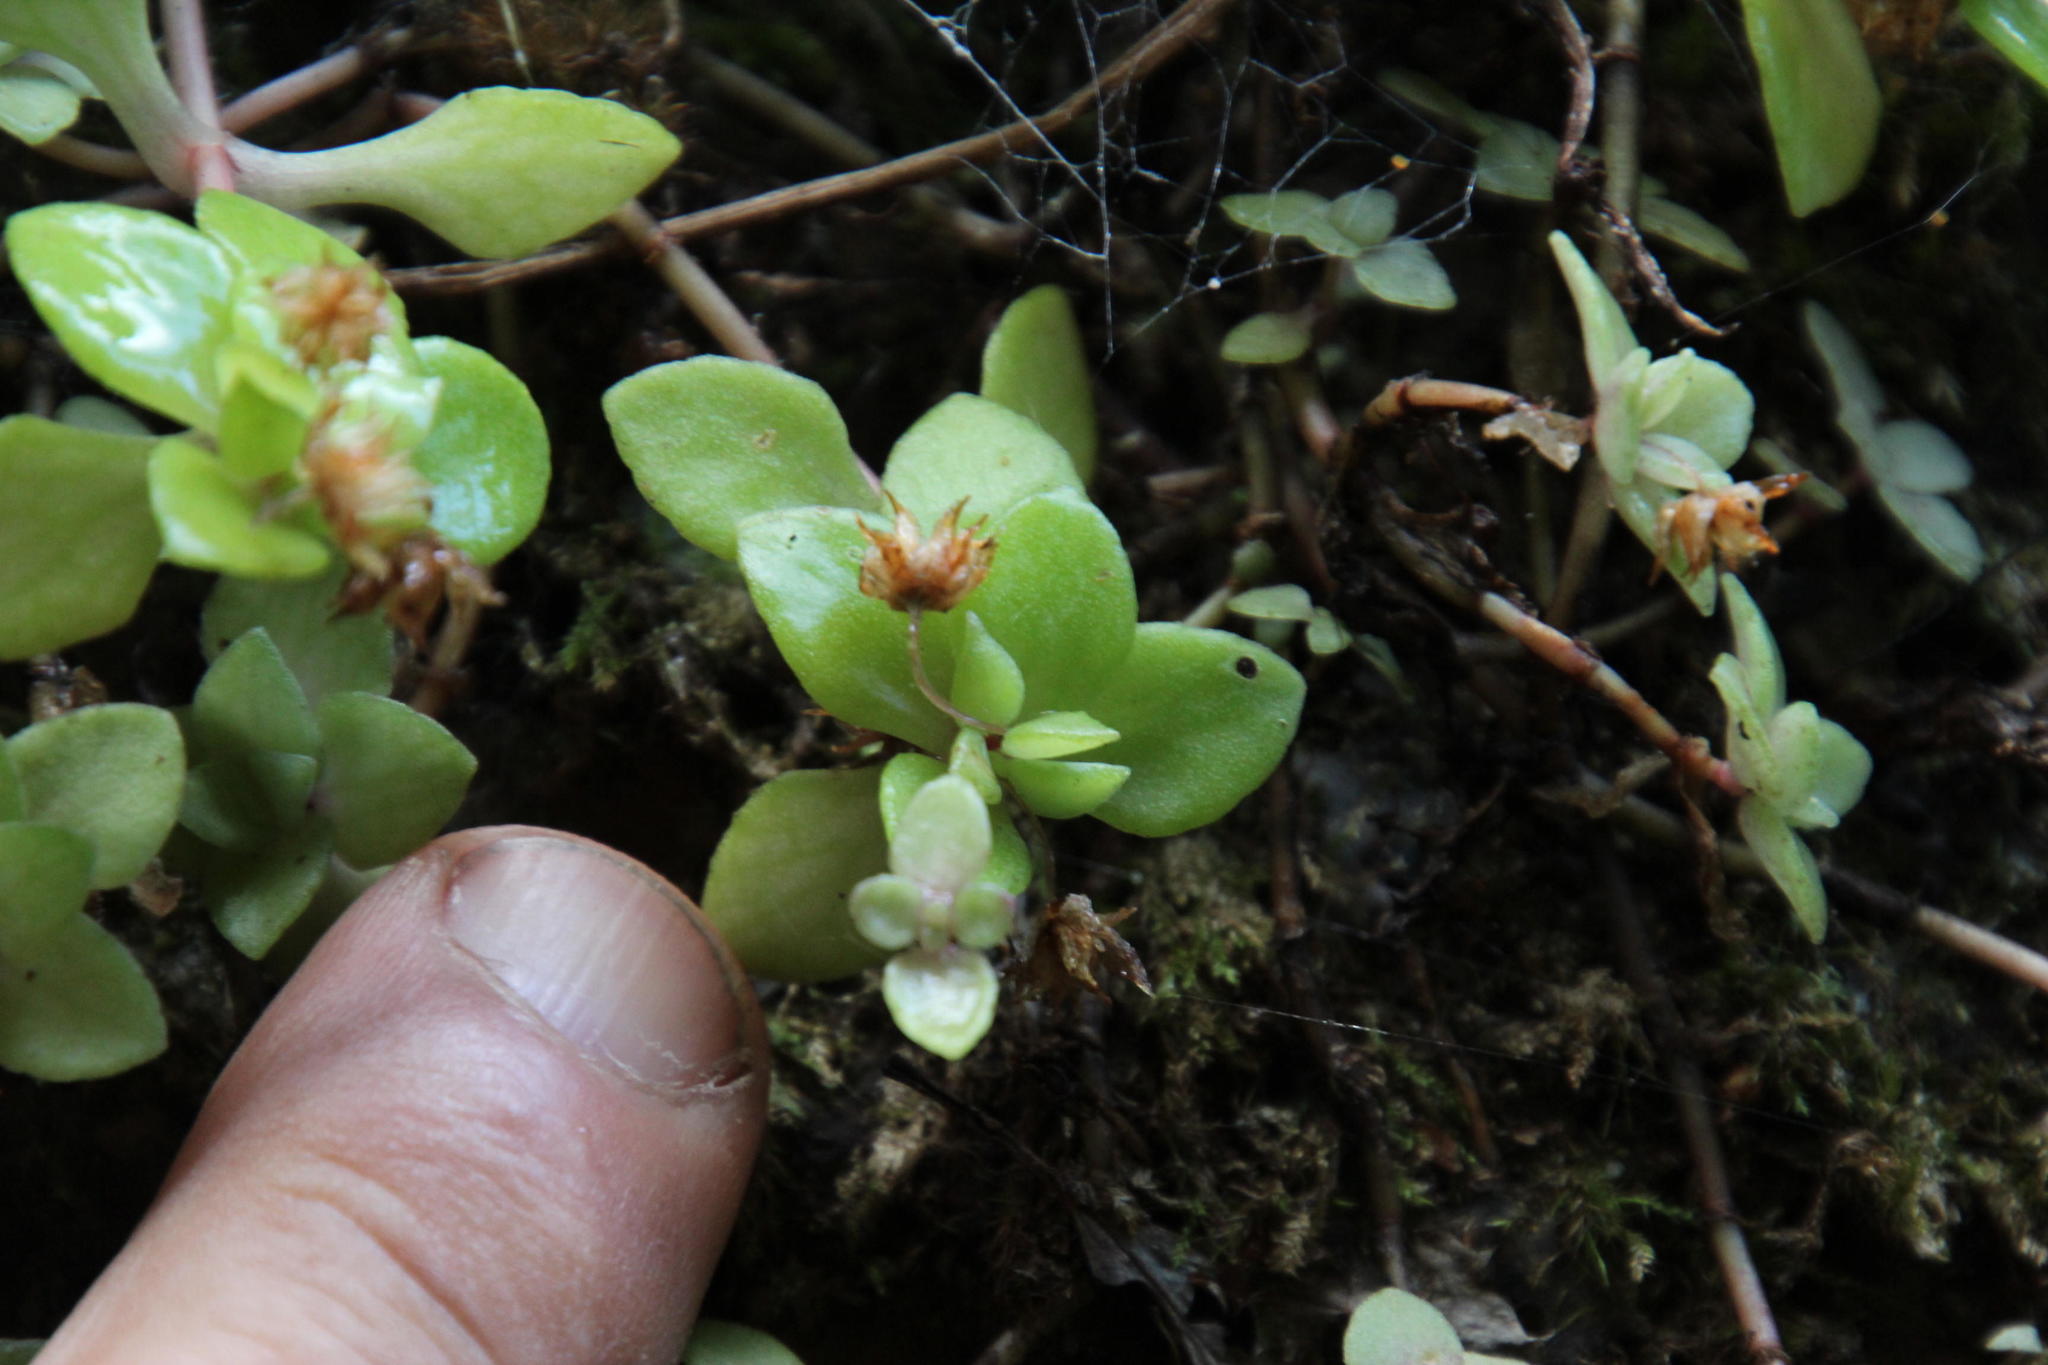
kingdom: Plantae
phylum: Tracheophyta
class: Magnoliopsida
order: Saxifragales
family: Crassulaceae
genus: Crassula
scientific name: Crassula pellucida
